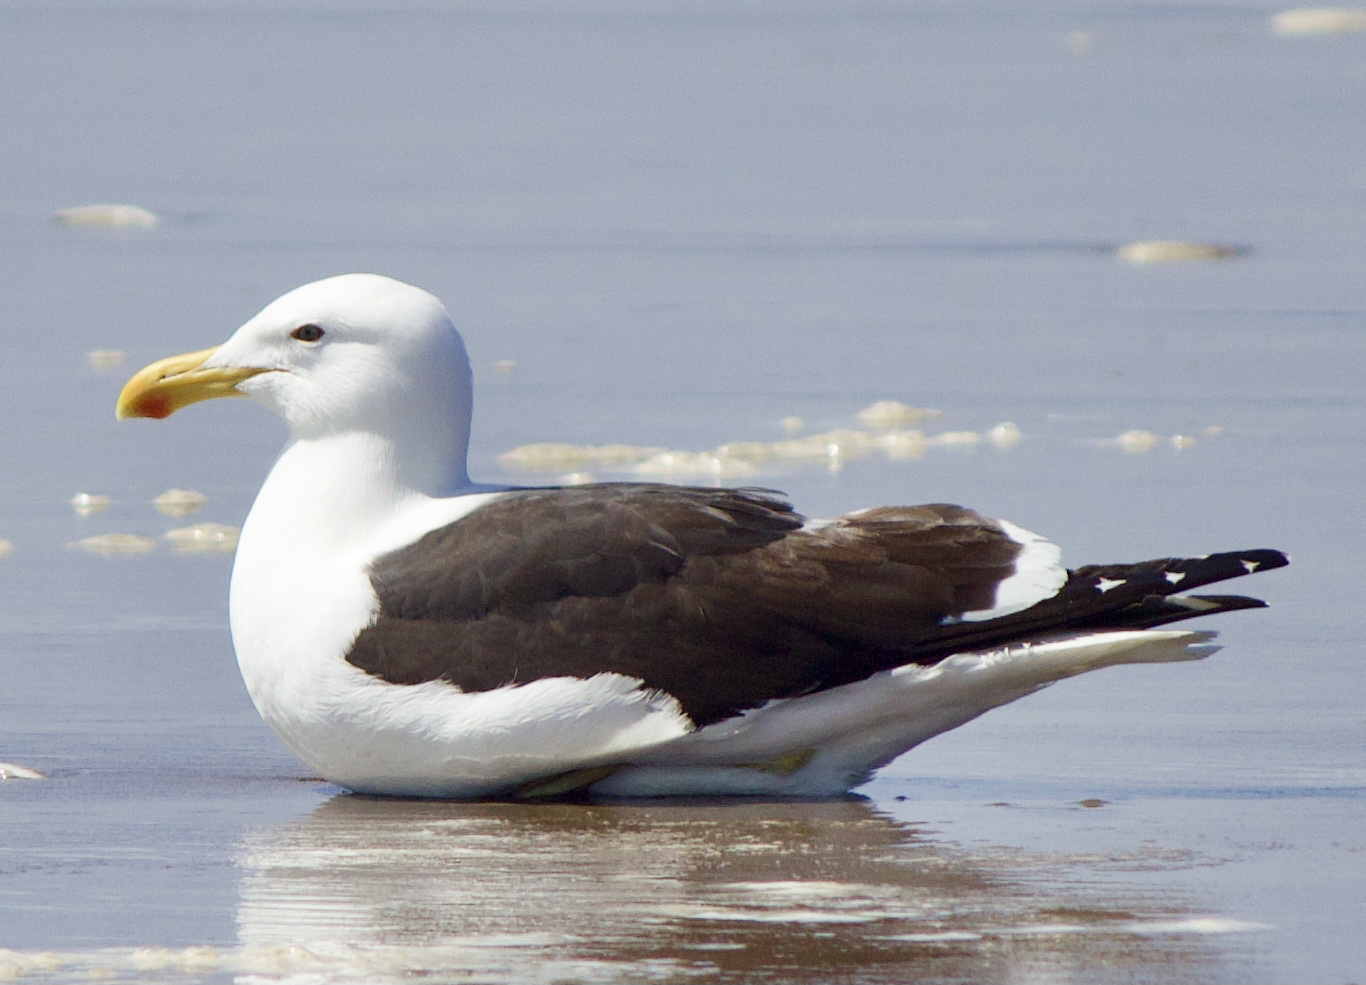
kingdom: Animalia
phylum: Chordata
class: Aves
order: Charadriiformes
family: Laridae
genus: Larus
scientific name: Larus dominicanus
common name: Kelp gull
